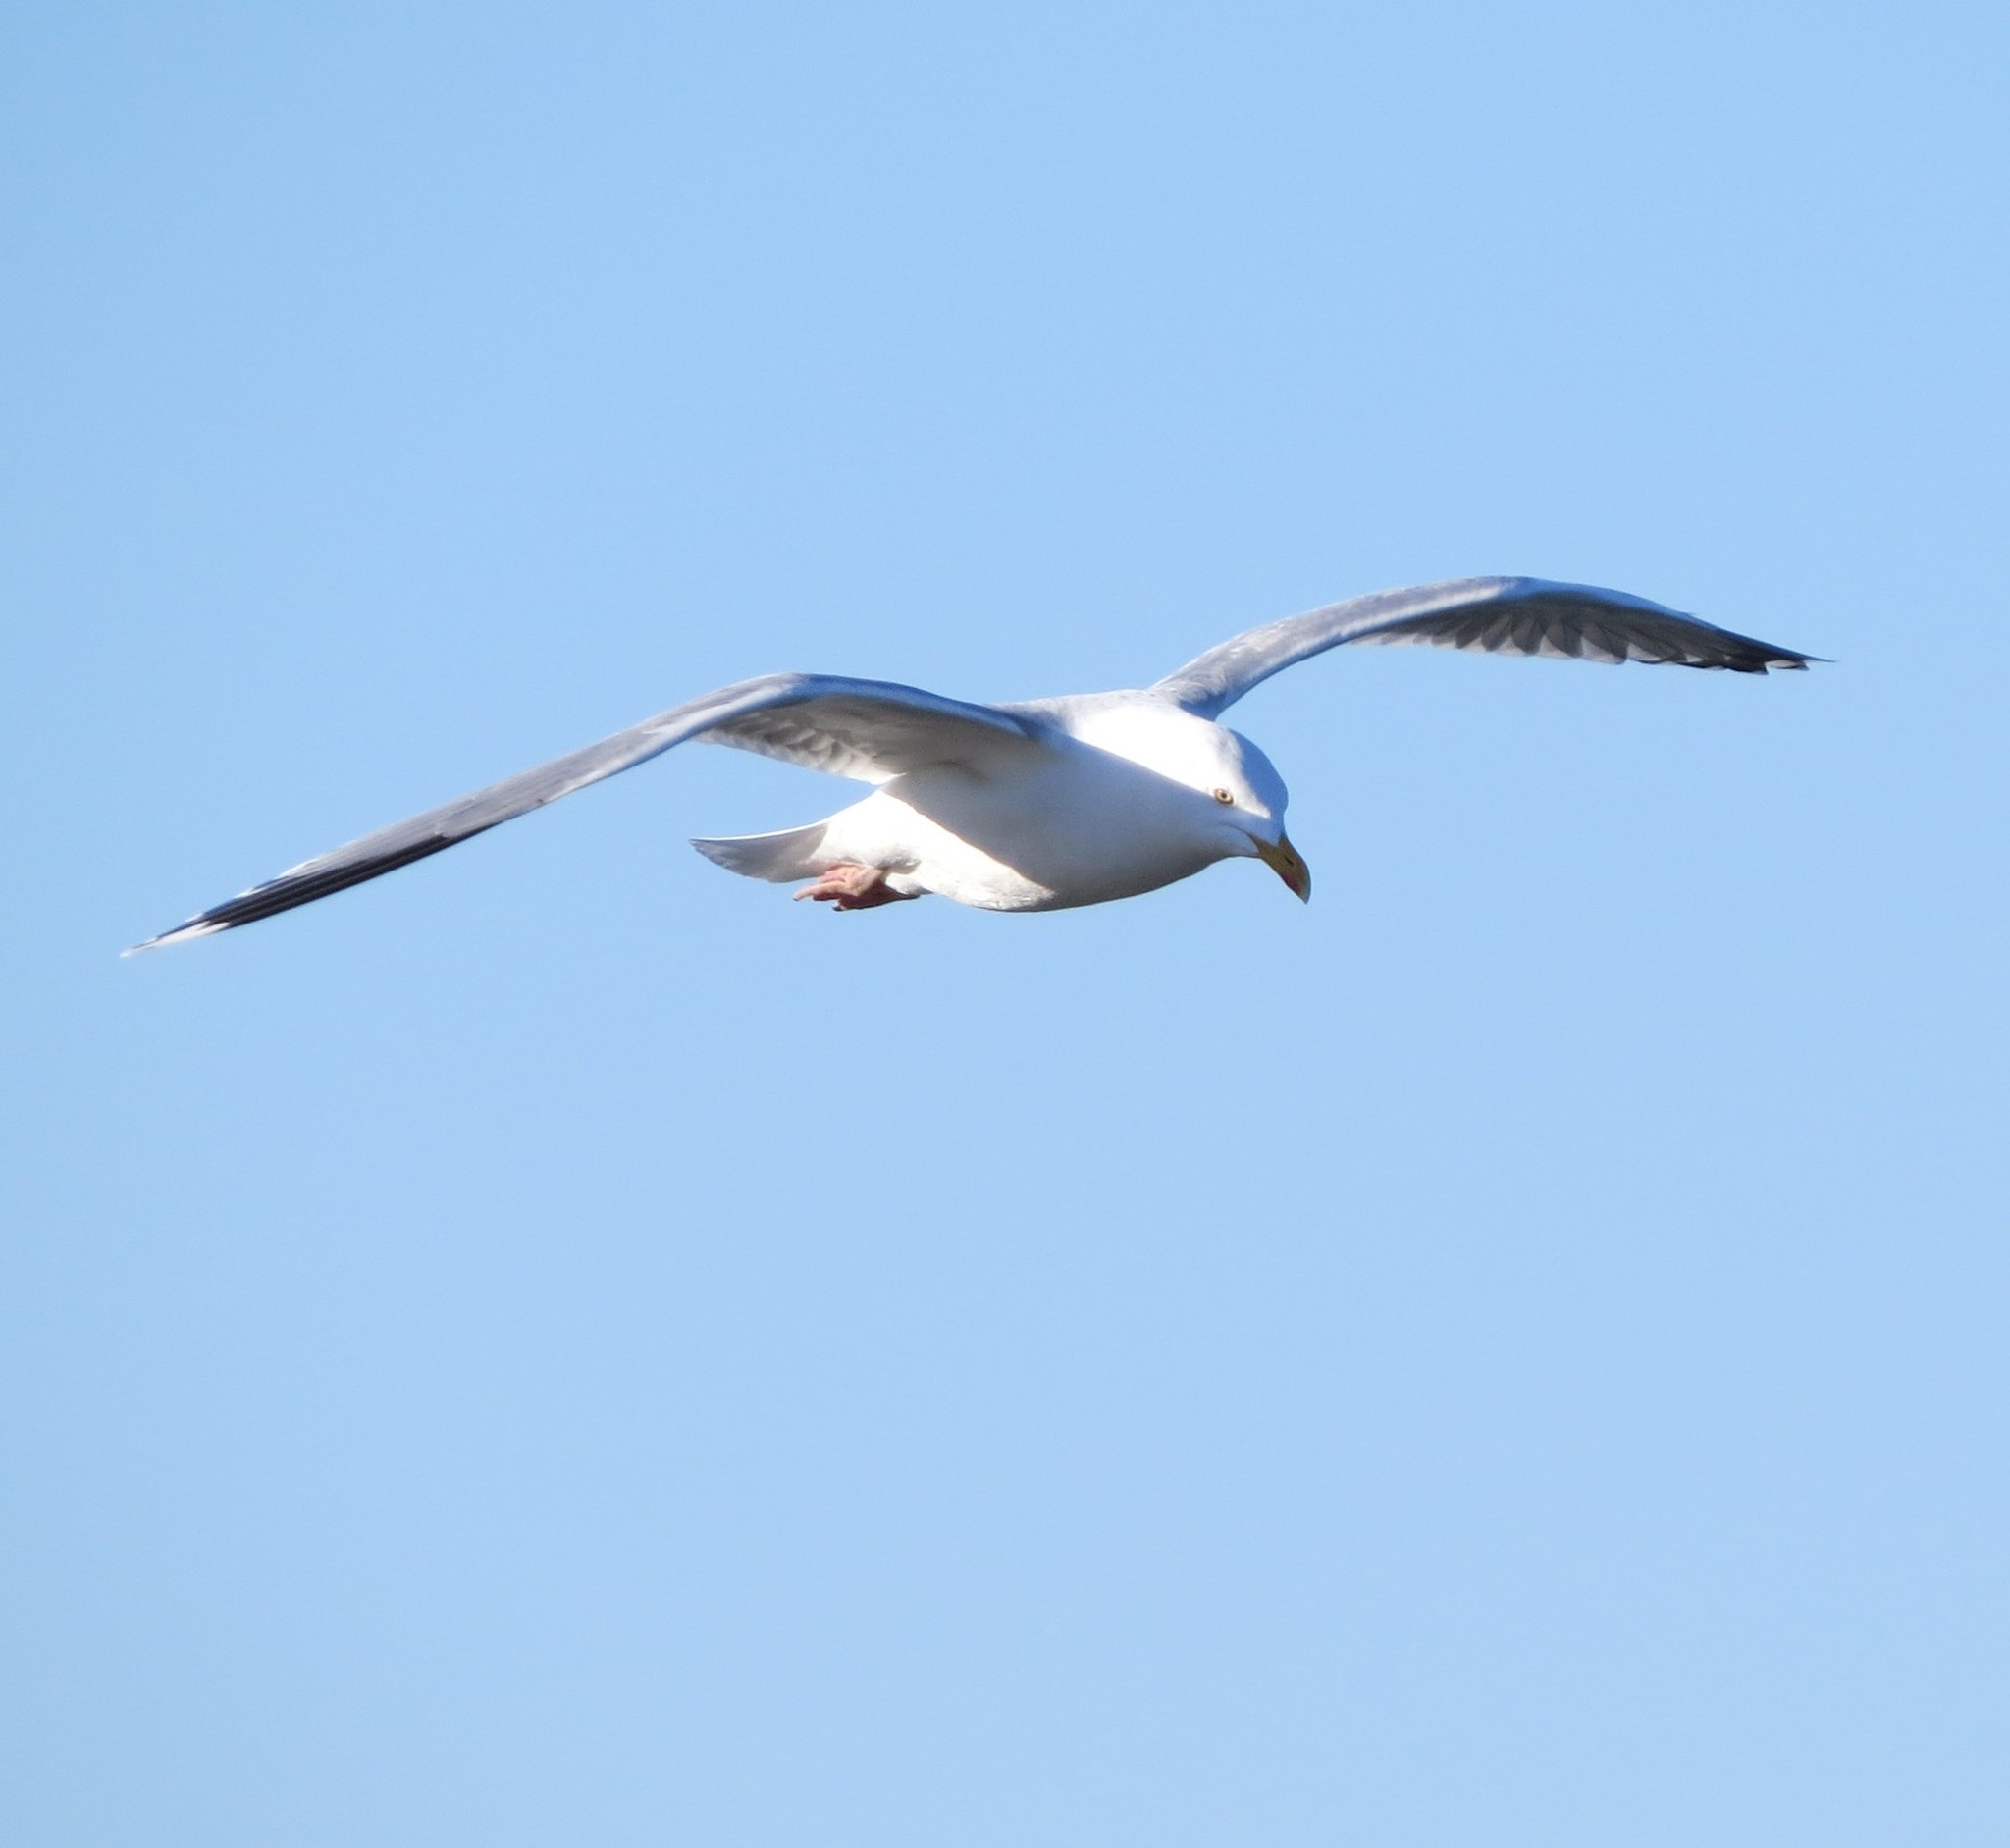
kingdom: Animalia
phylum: Chordata
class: Aves
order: Charadriiformes
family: Laridae
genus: Larus
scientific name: Larus argentatus
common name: Herring gull
